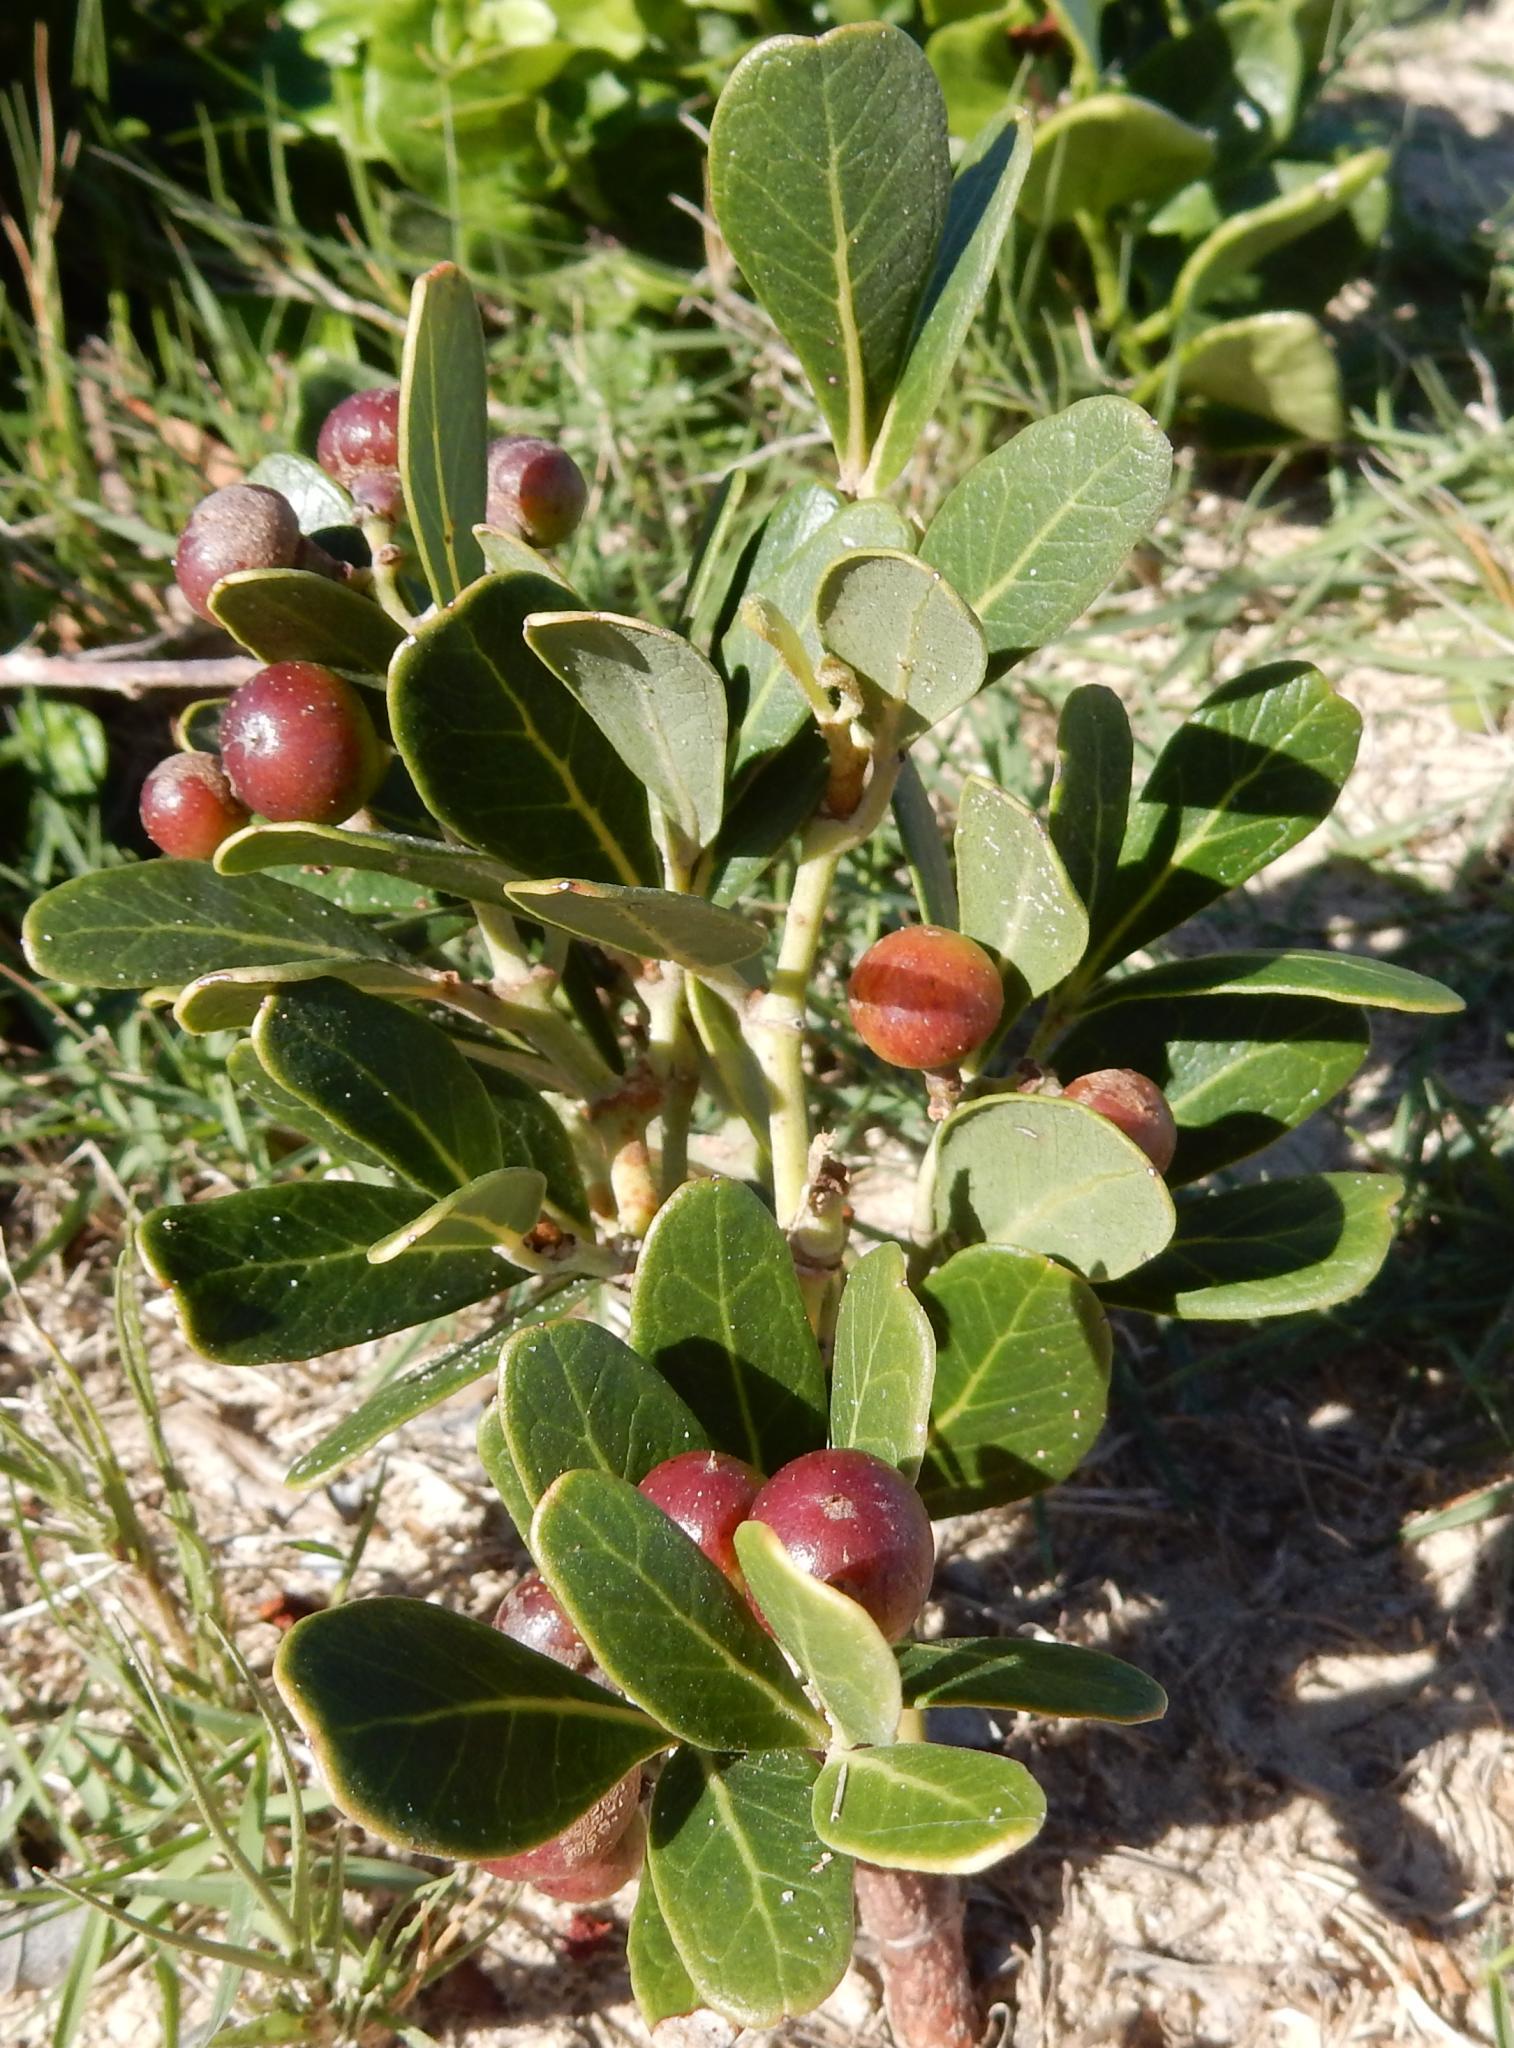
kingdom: Plantae
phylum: Tracheophyta
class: Magnoliopsida
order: Vitales
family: Vitaceae
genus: Rhoicissus
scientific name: Rhoicissus digitata
